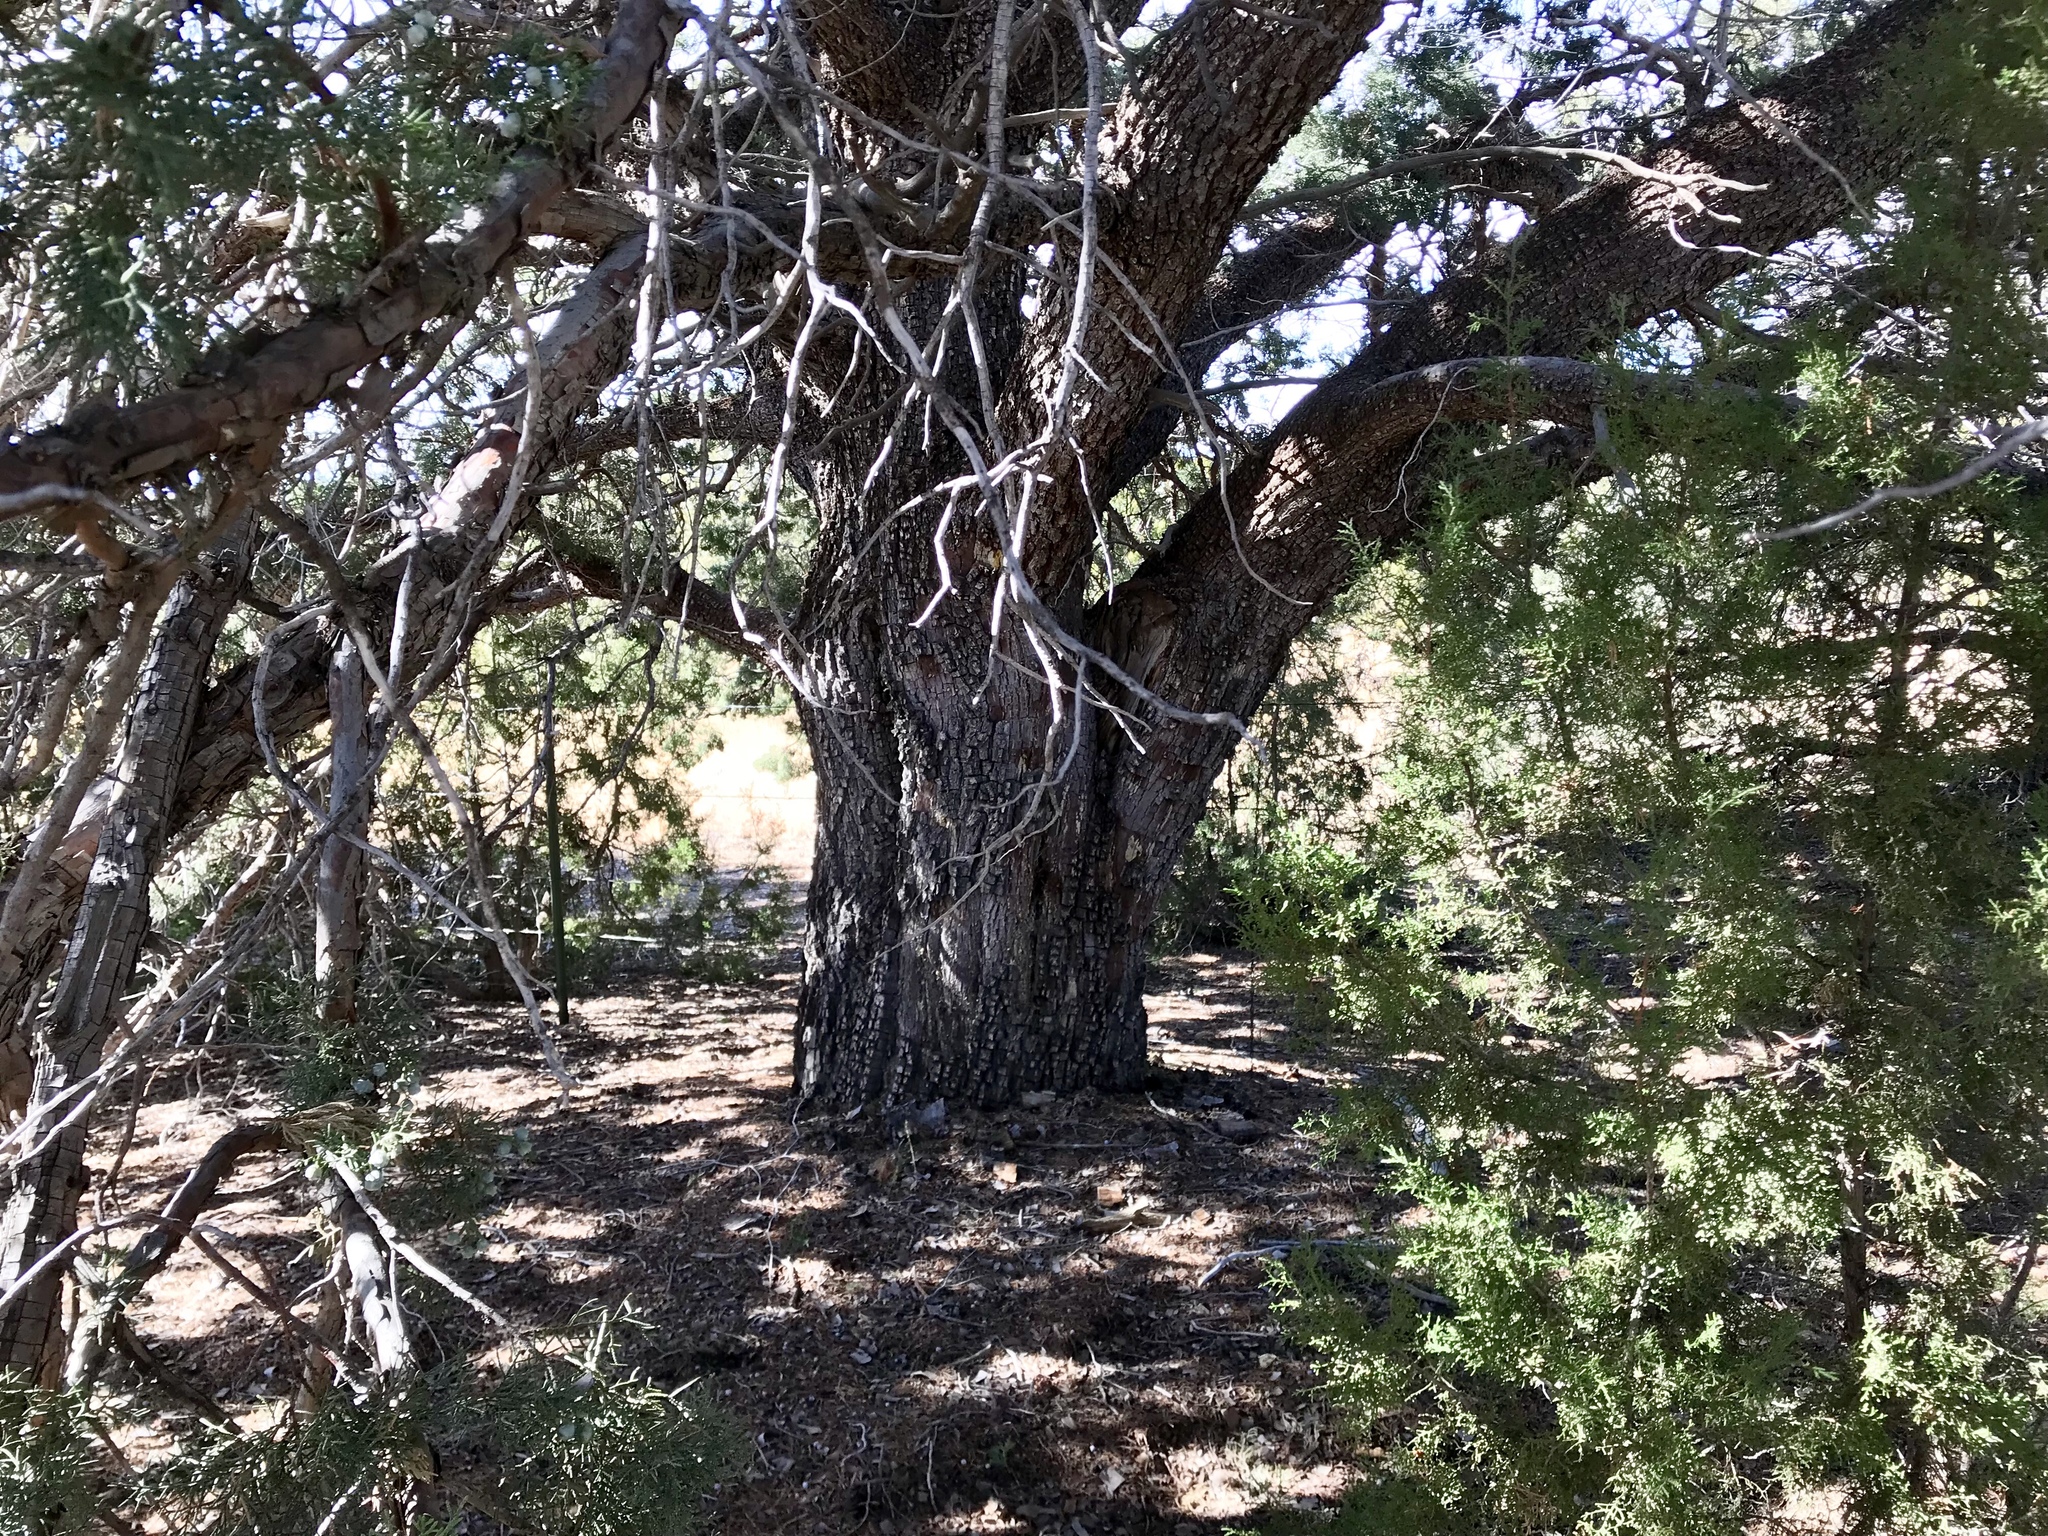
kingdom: Plantae
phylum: Tracheophyta
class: Pinopsida
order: Pinales
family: Cupressaceae
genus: Juniperus
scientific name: Juniperus deppeana
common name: Alligator juniper
